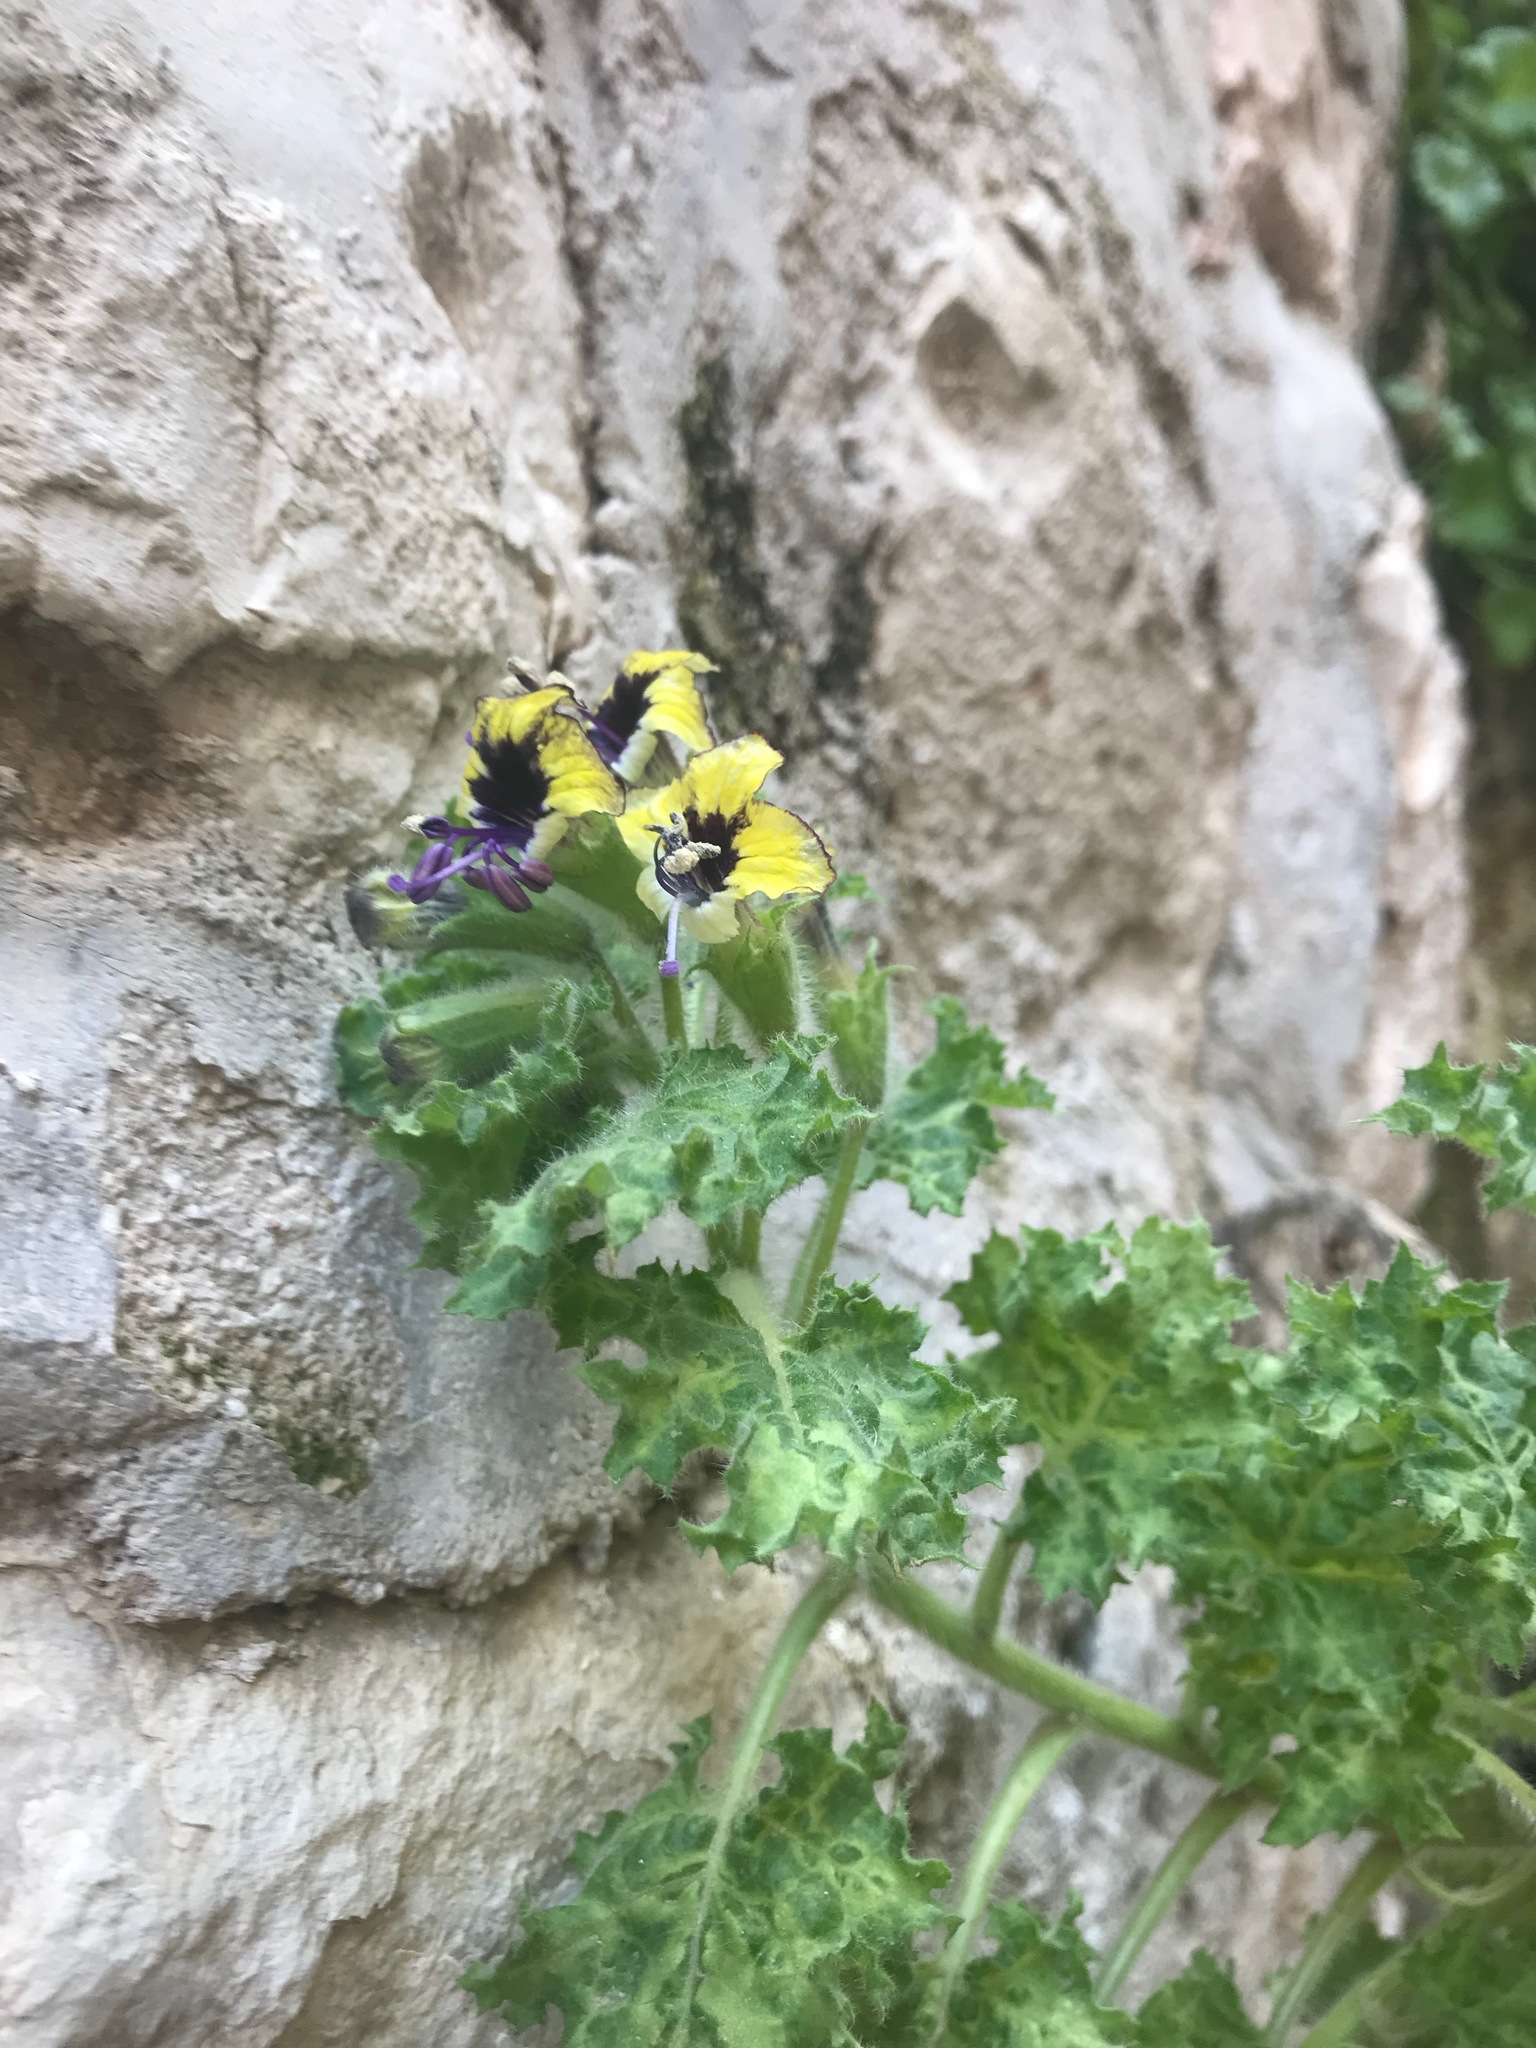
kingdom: Plantae
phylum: Tracheophyta
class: Magnoliopsida
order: Solanales
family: Solanaceae
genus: Hyoscyamus
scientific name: Hyoscyamus aureus
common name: Golden henbane
